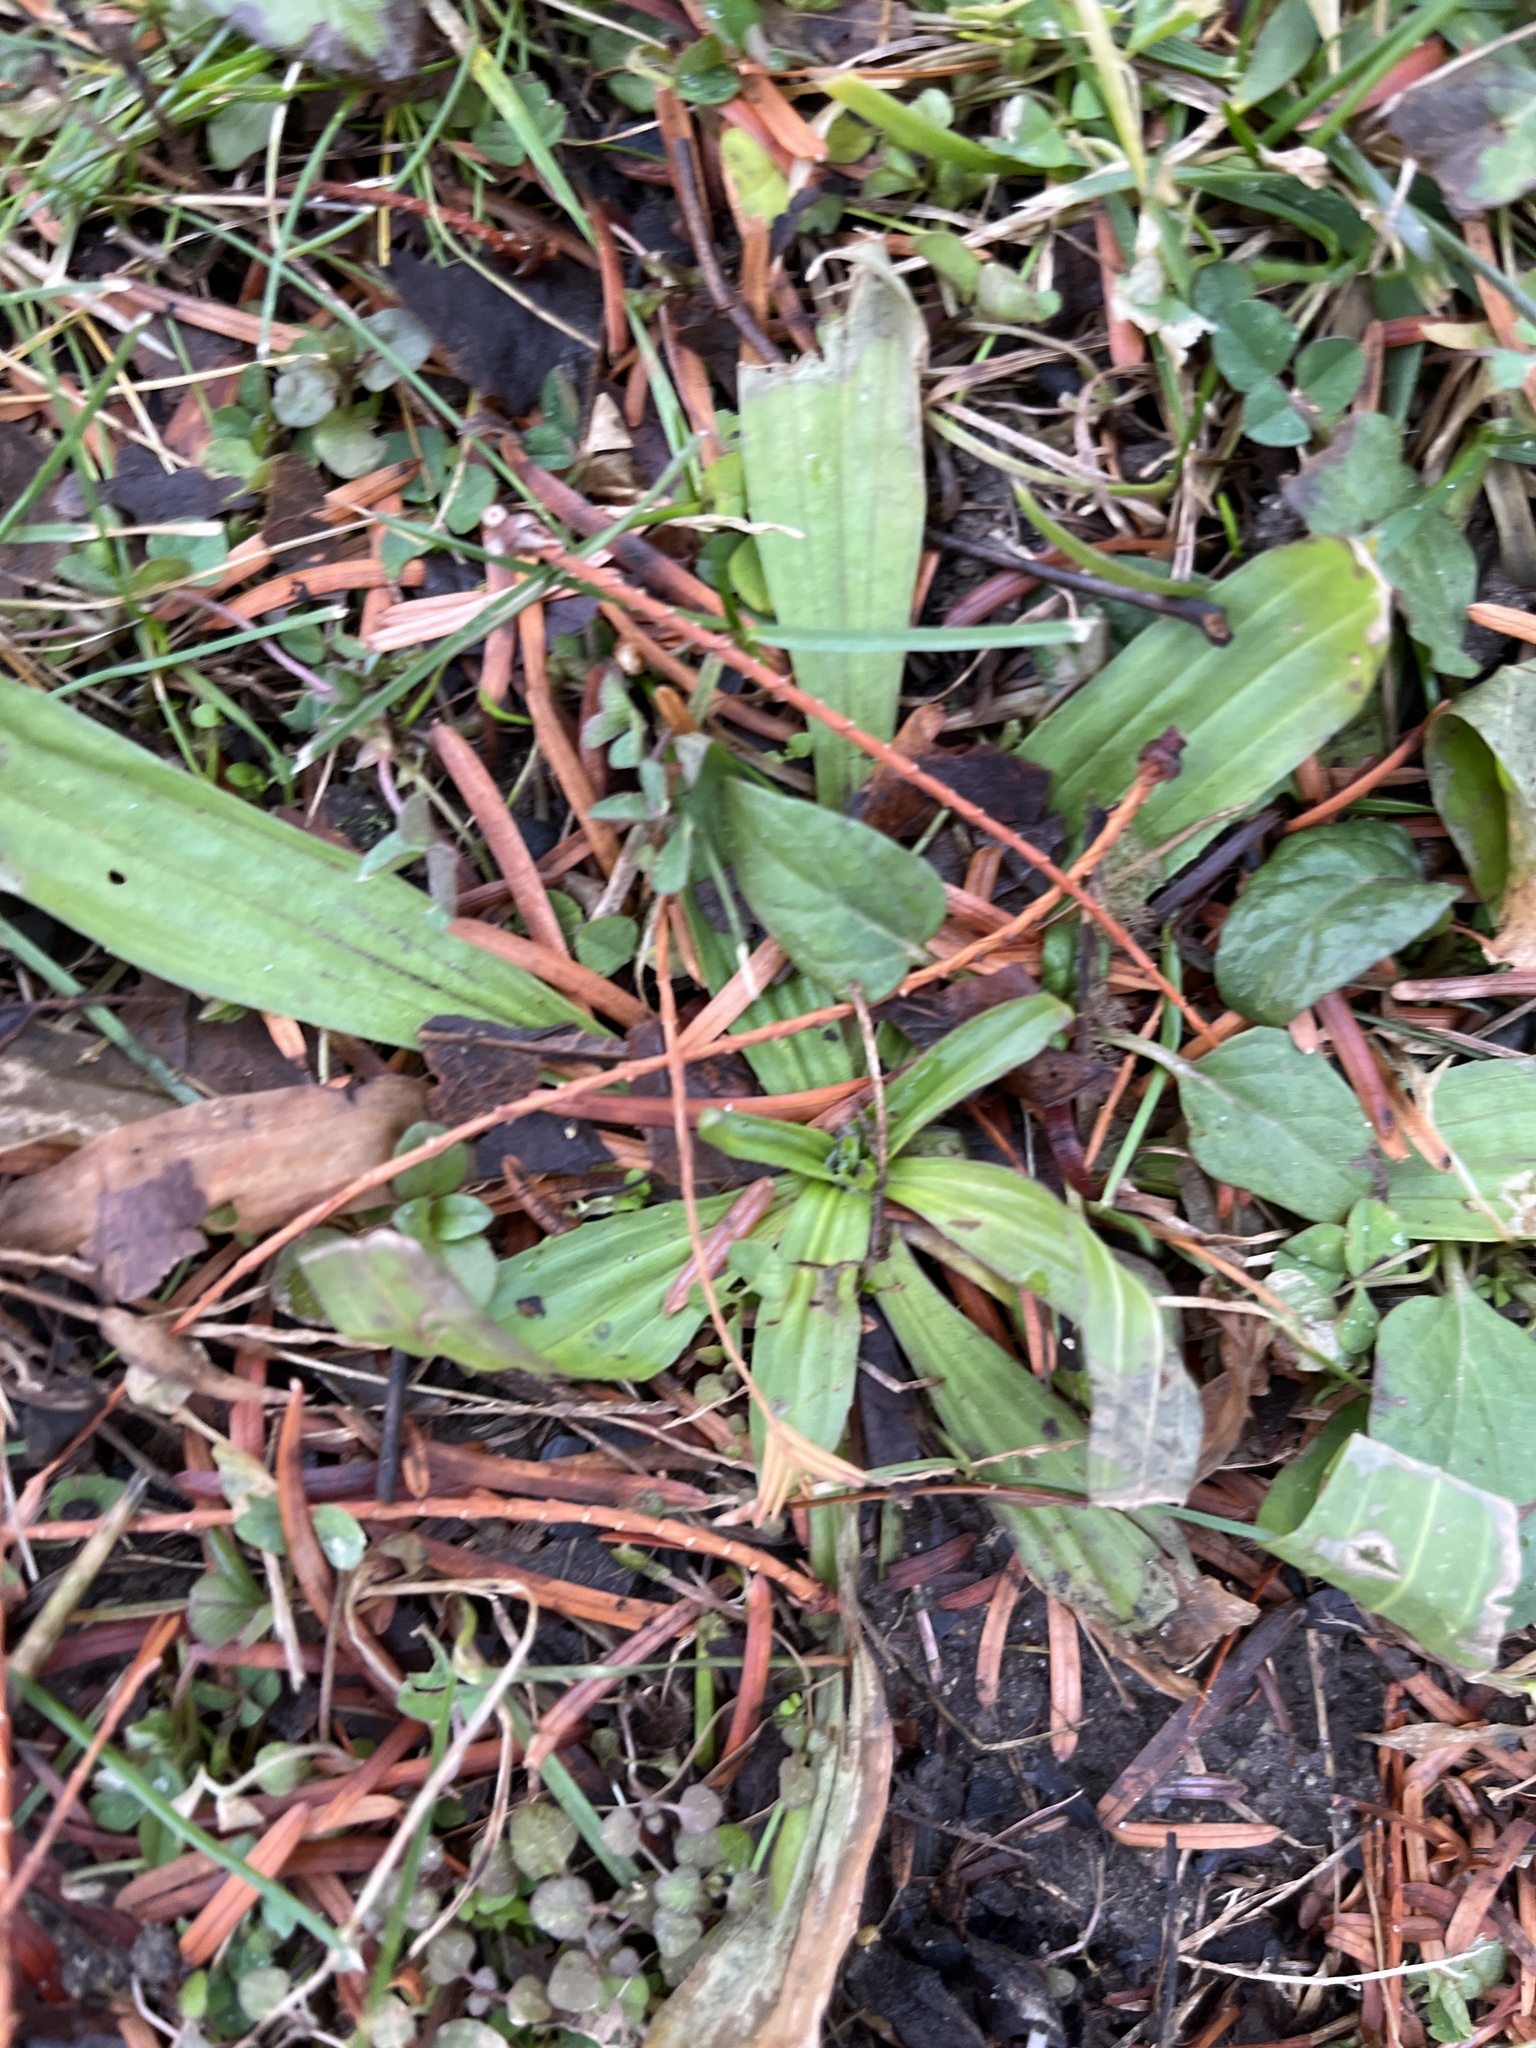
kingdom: Plantae
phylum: Tracheophyta
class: Magnoliopsida
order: Lamiales
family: Plantaginaceae
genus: Plantago
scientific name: Plantago lanceolata
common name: Ribwort plantain
